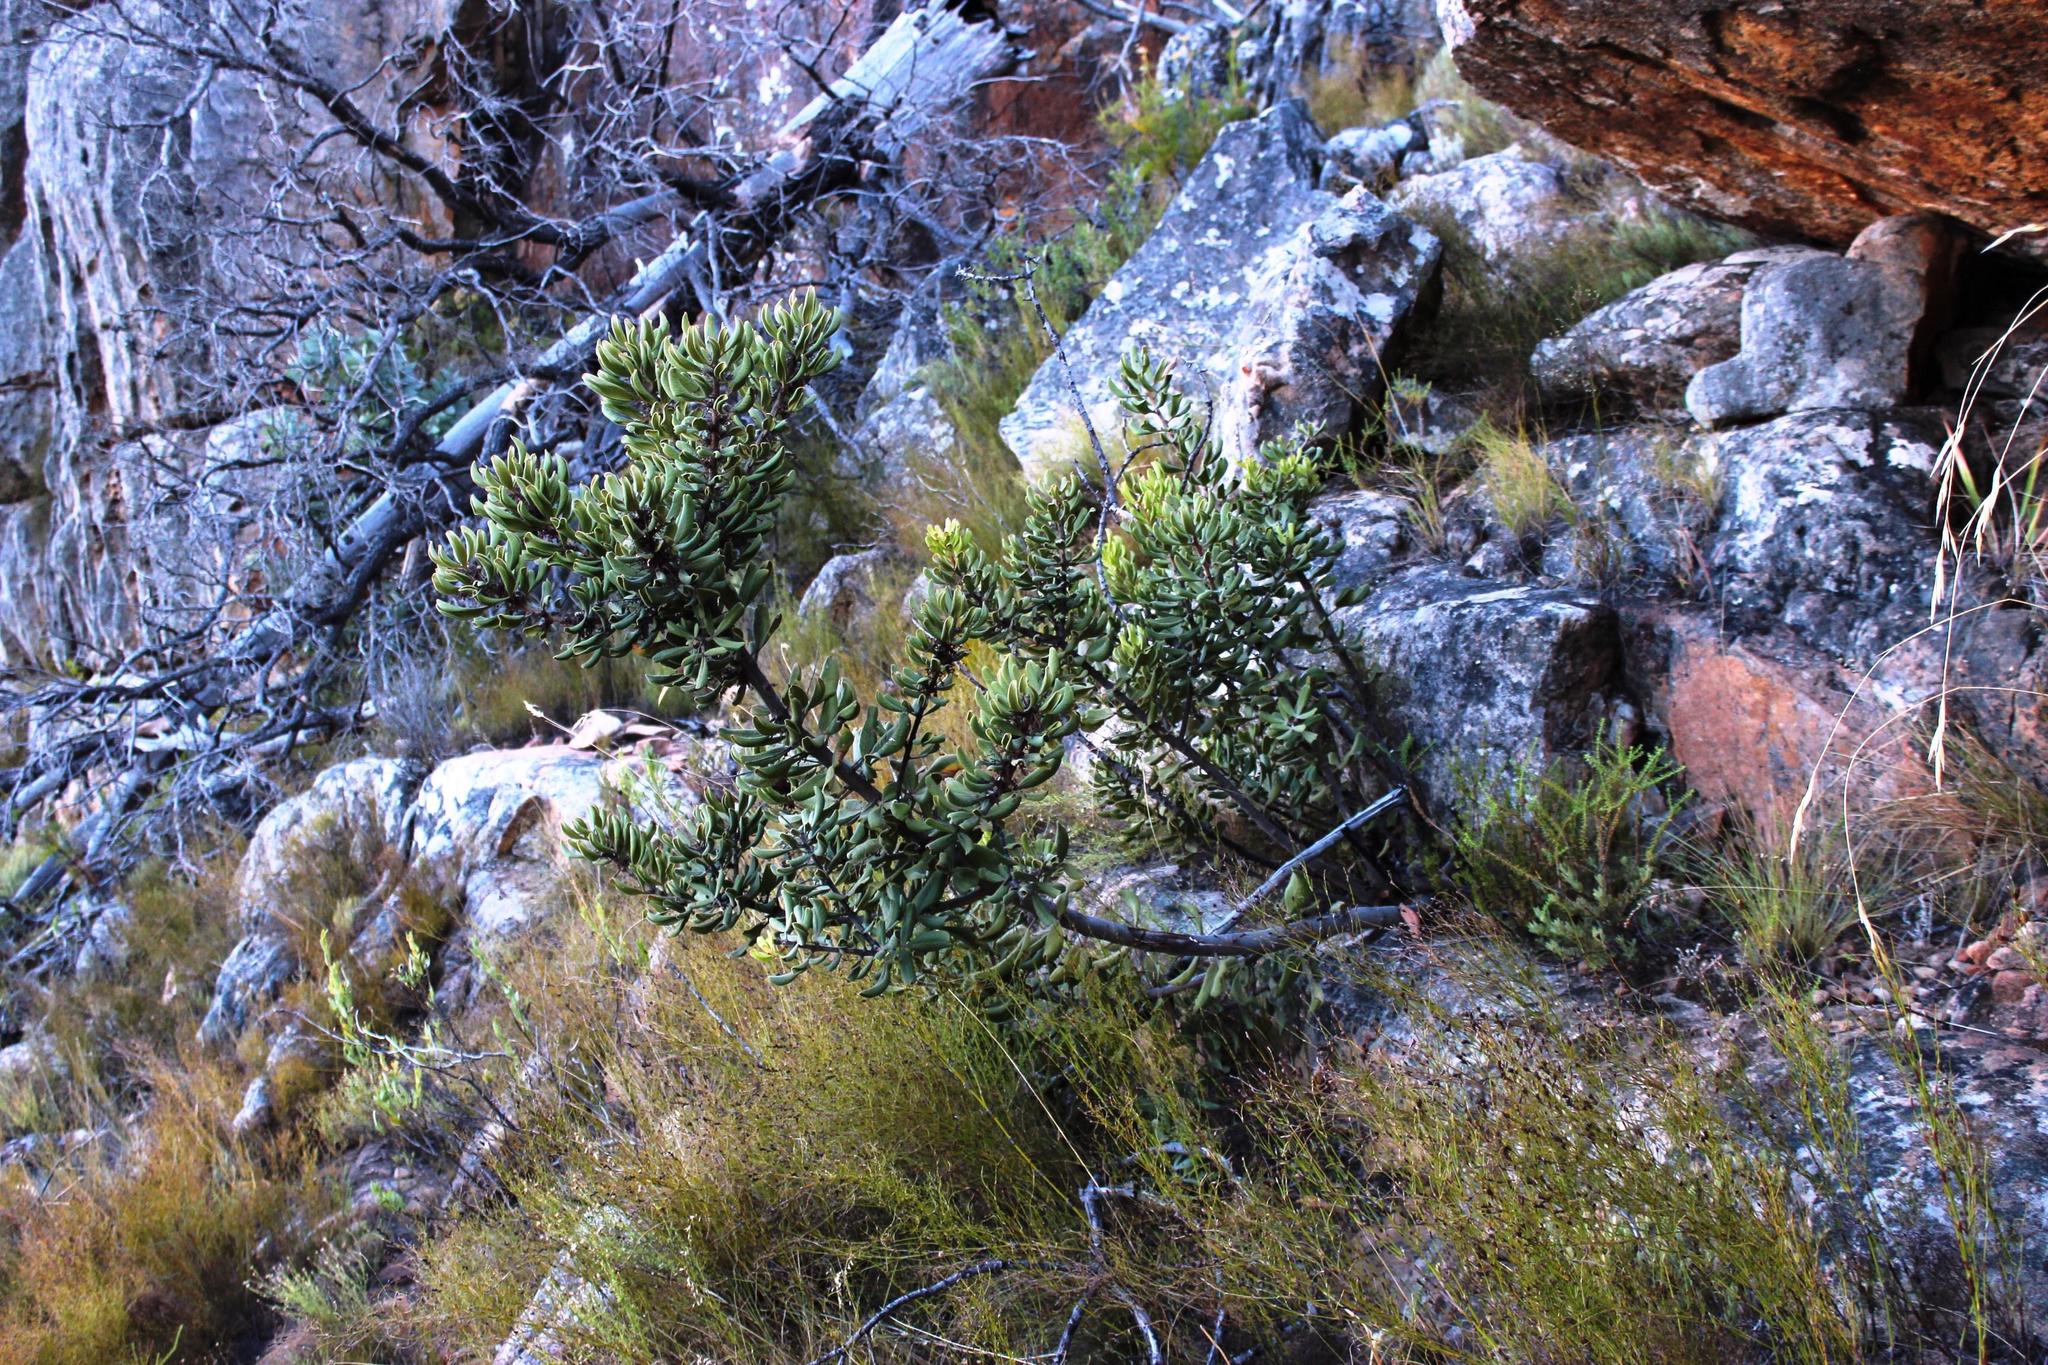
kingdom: Plantae
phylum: Tracheophyta
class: Magnoliopsida
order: Sapindales
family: Anacardiaceae
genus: Searsia
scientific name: Searsia scytophylla
